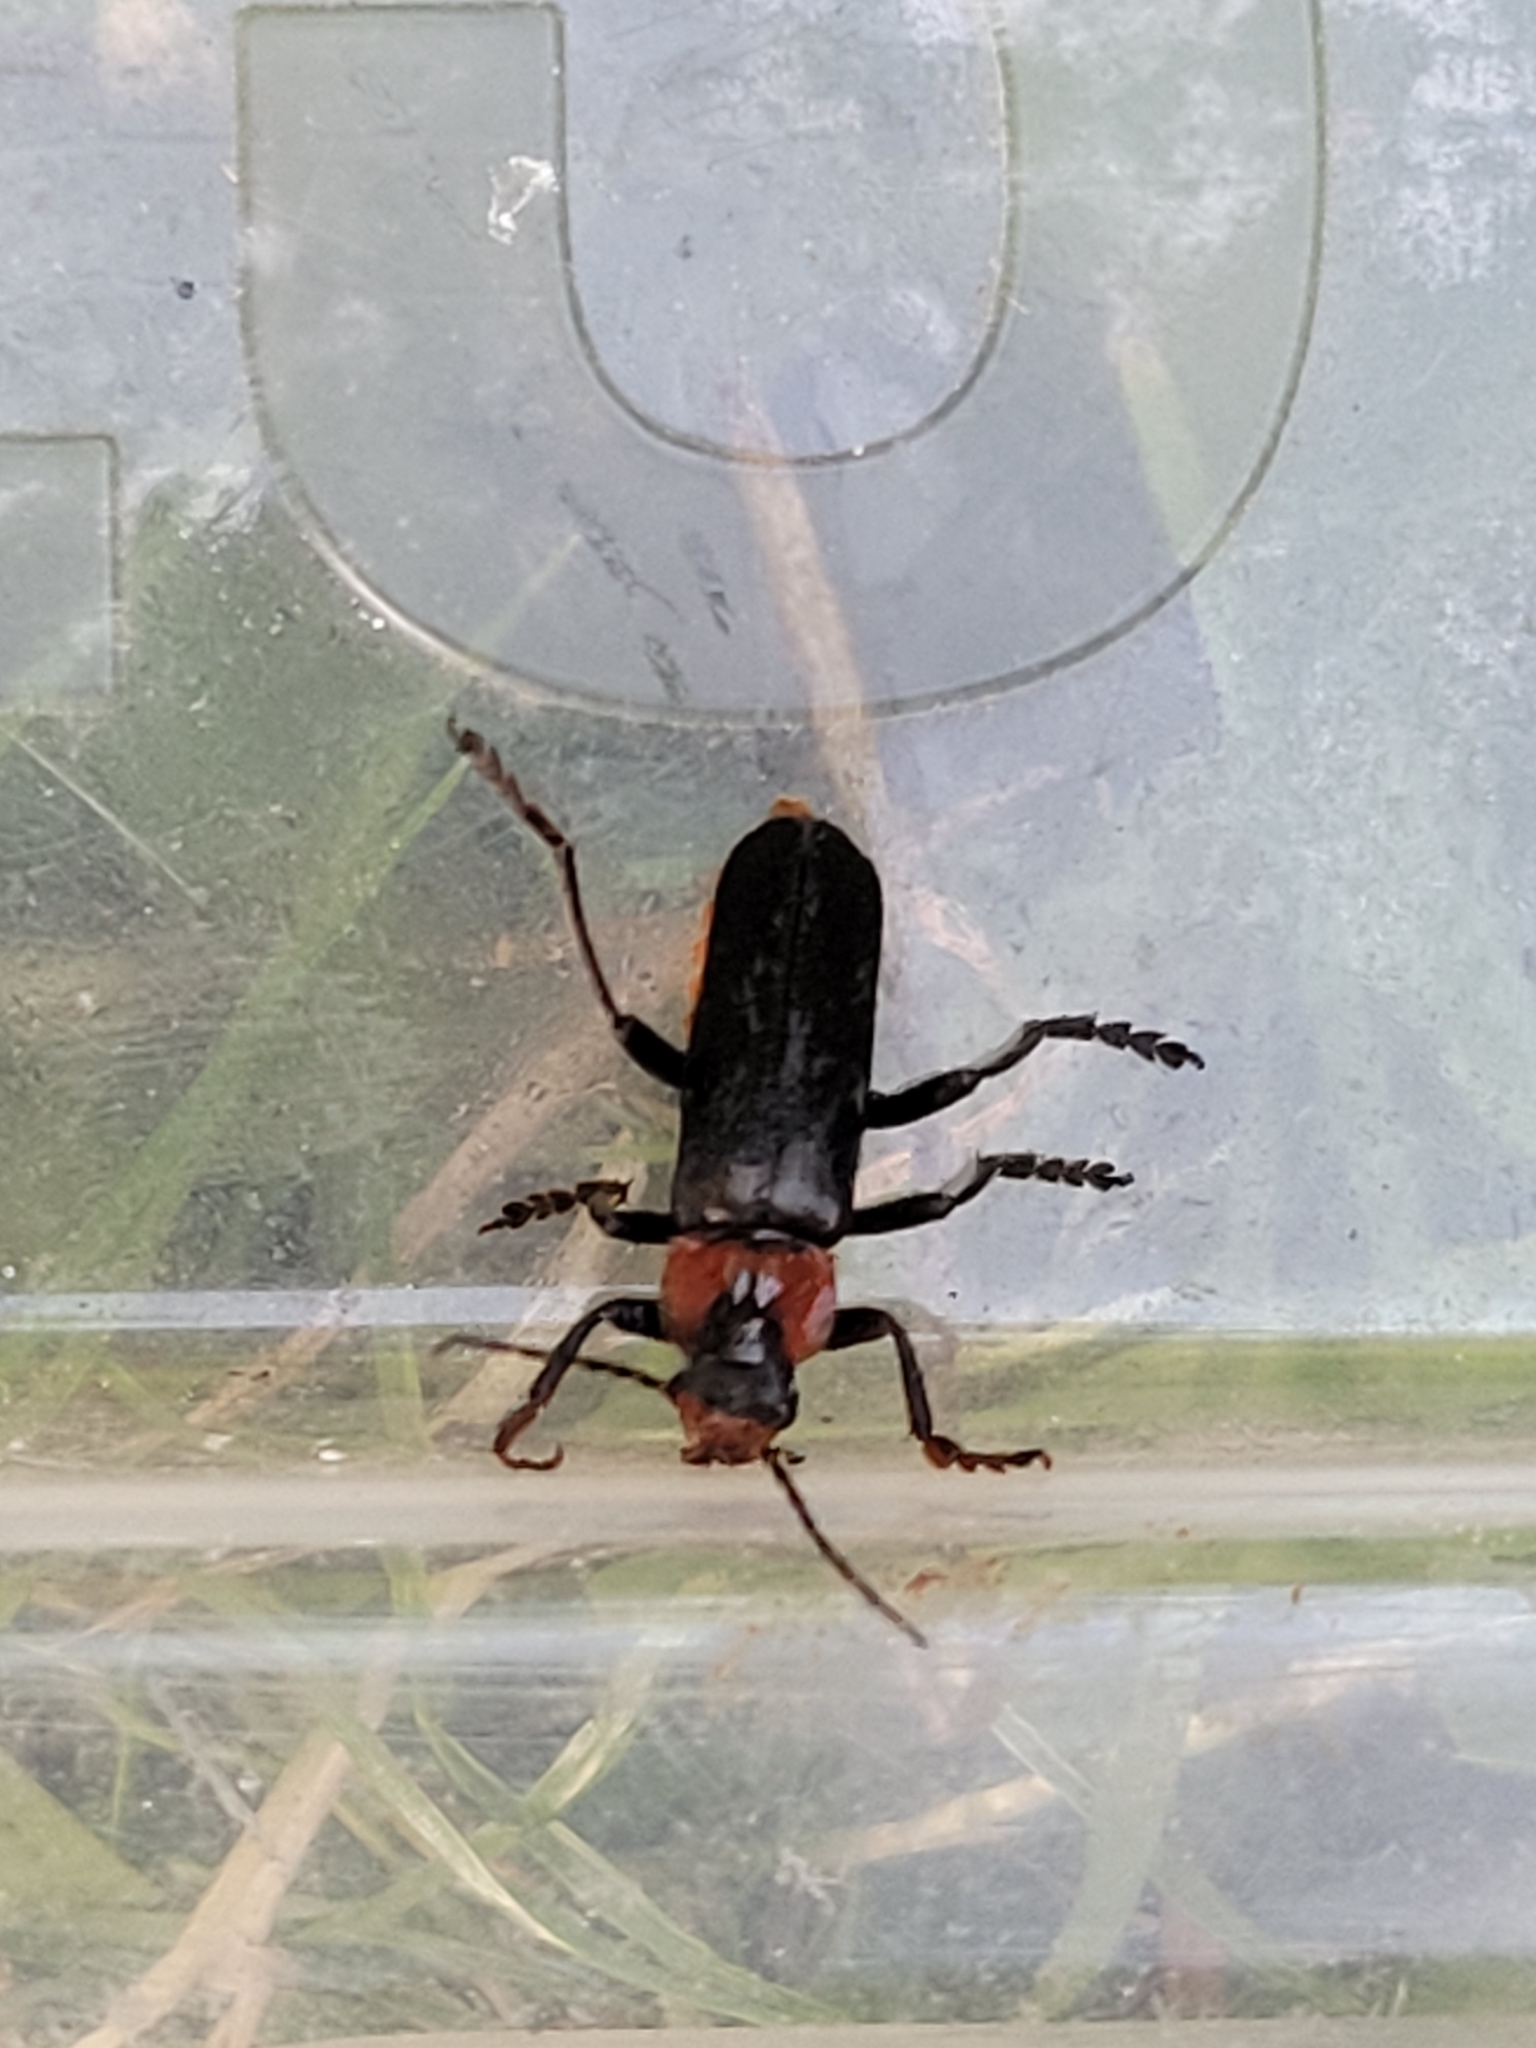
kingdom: Animalia
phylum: Arthropoda
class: Insecta
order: Coleoptera
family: Cantharidae
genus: Cantharis
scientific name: Cantharis fusca
